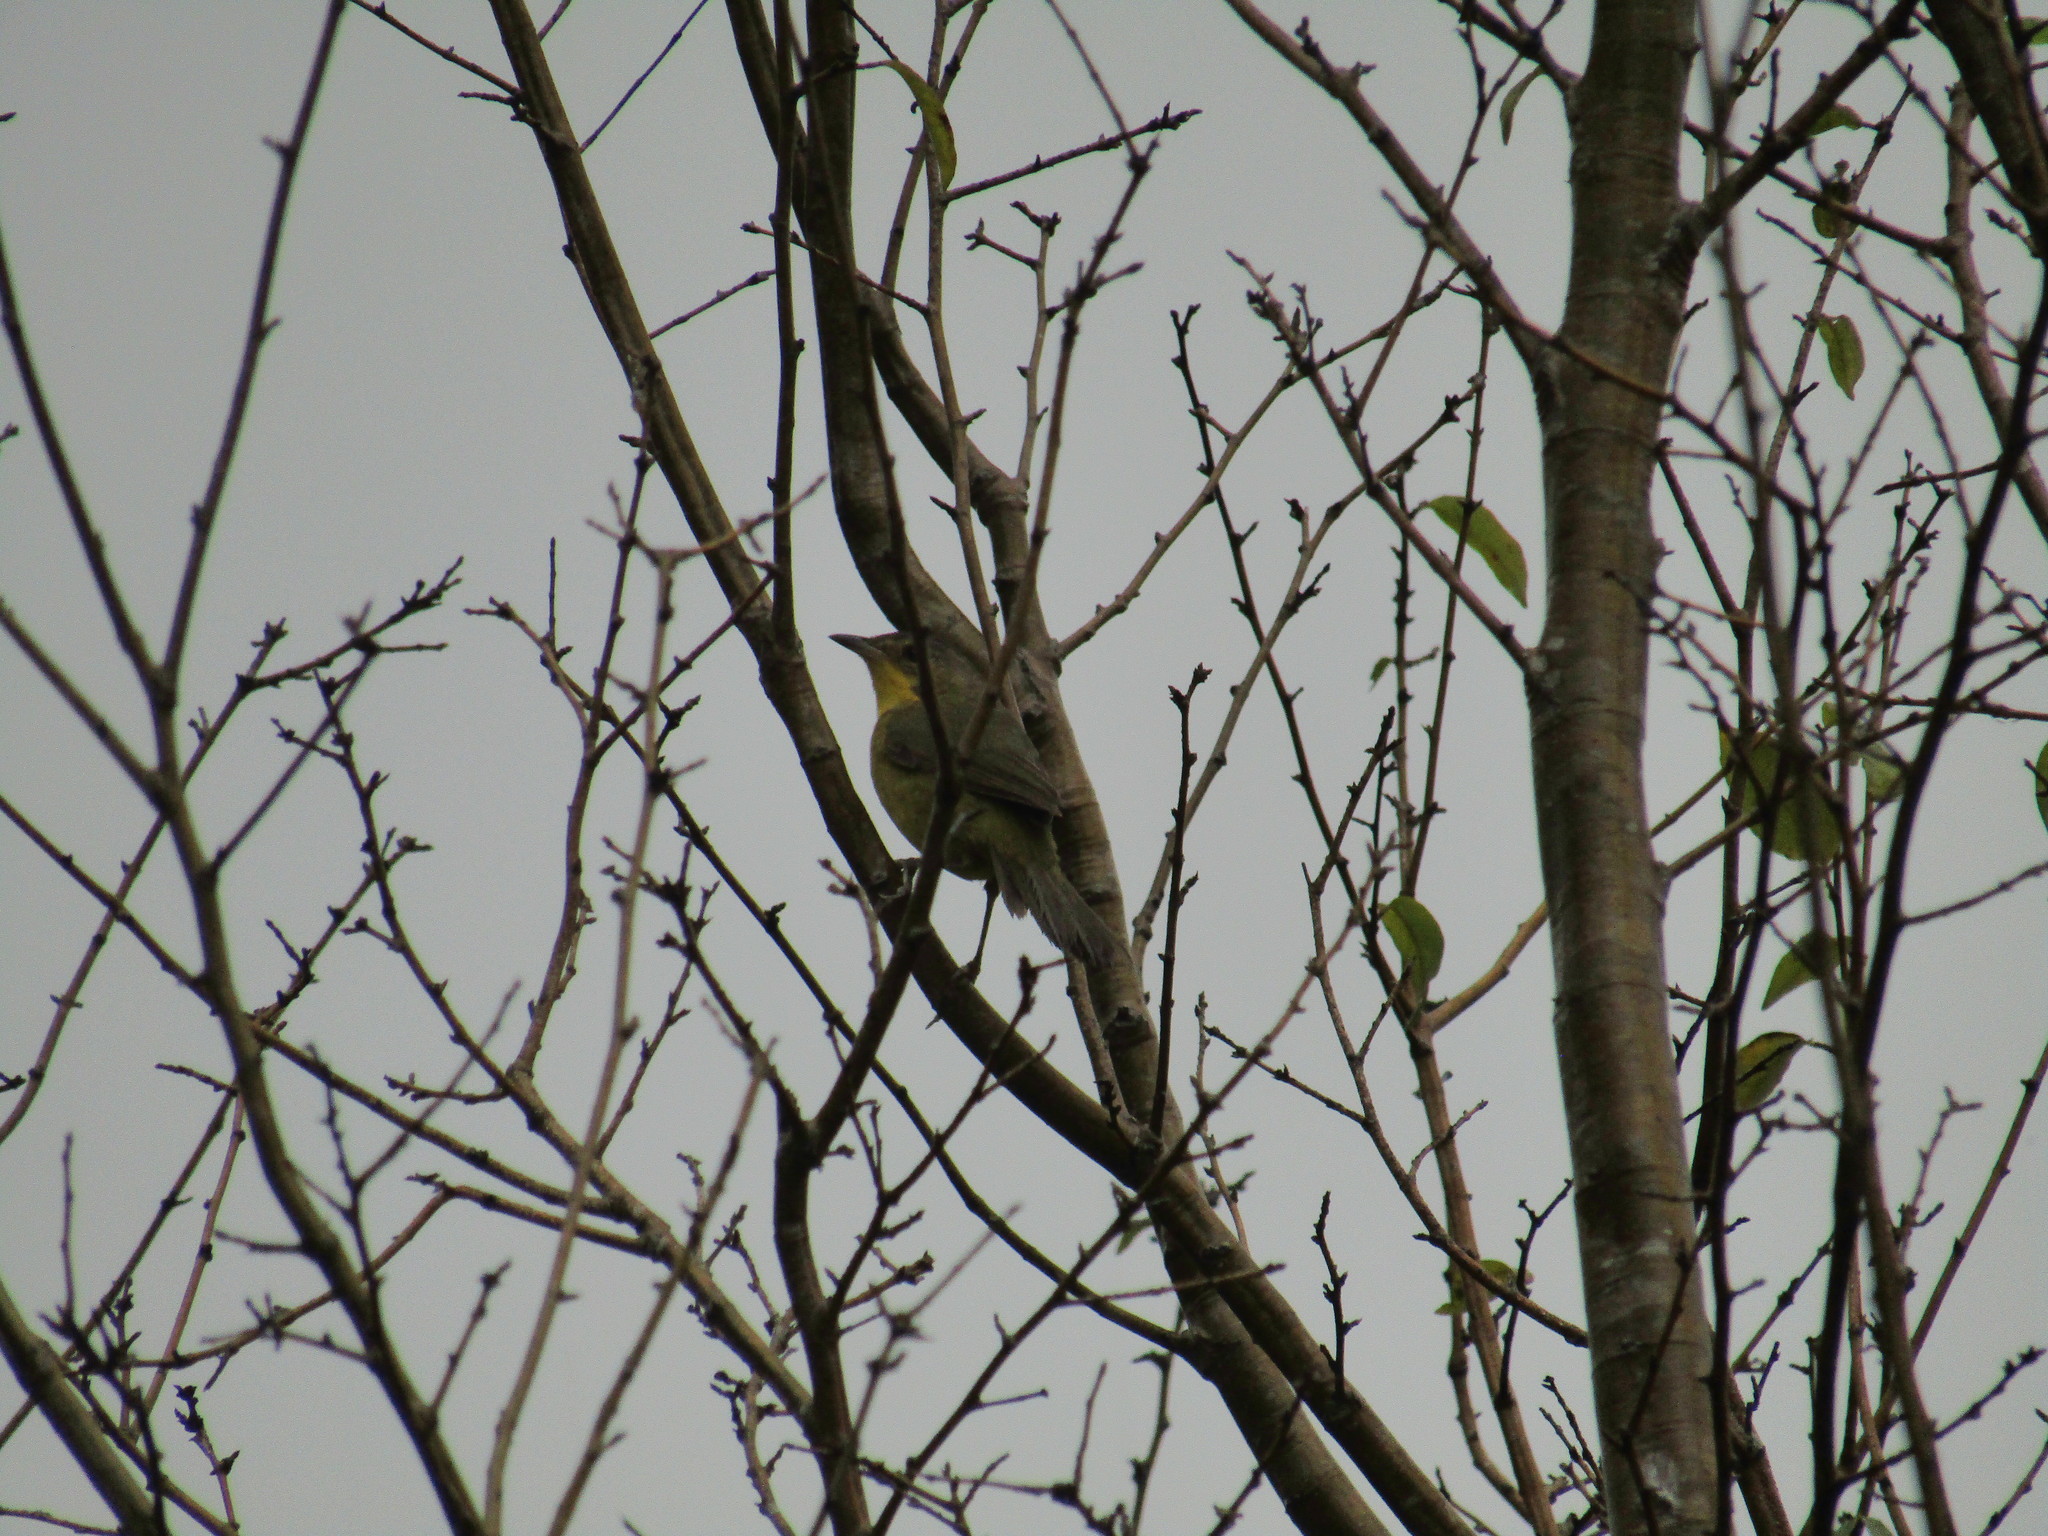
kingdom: Animalia
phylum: Chordata
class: Aves
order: Passeriformes
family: Parulidae
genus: Geothlypis
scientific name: Geothlypis velata
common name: Southern yellowthroat
